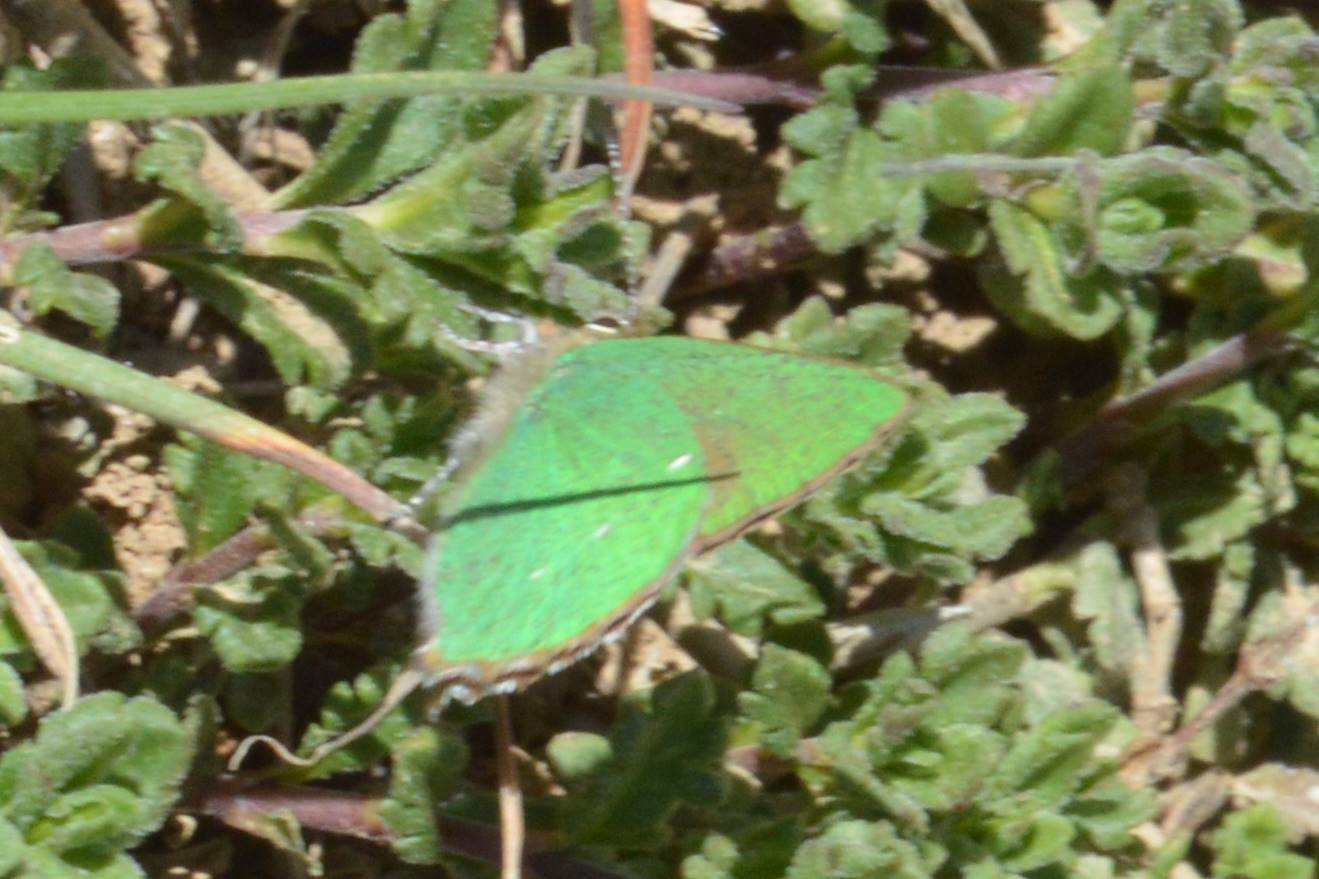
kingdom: Animalia
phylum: Arthropoda
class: Insecta
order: Lepidoptera
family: Lycaenidae
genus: Callophrys
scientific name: Callophrys rubi
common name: Green hairstreak
